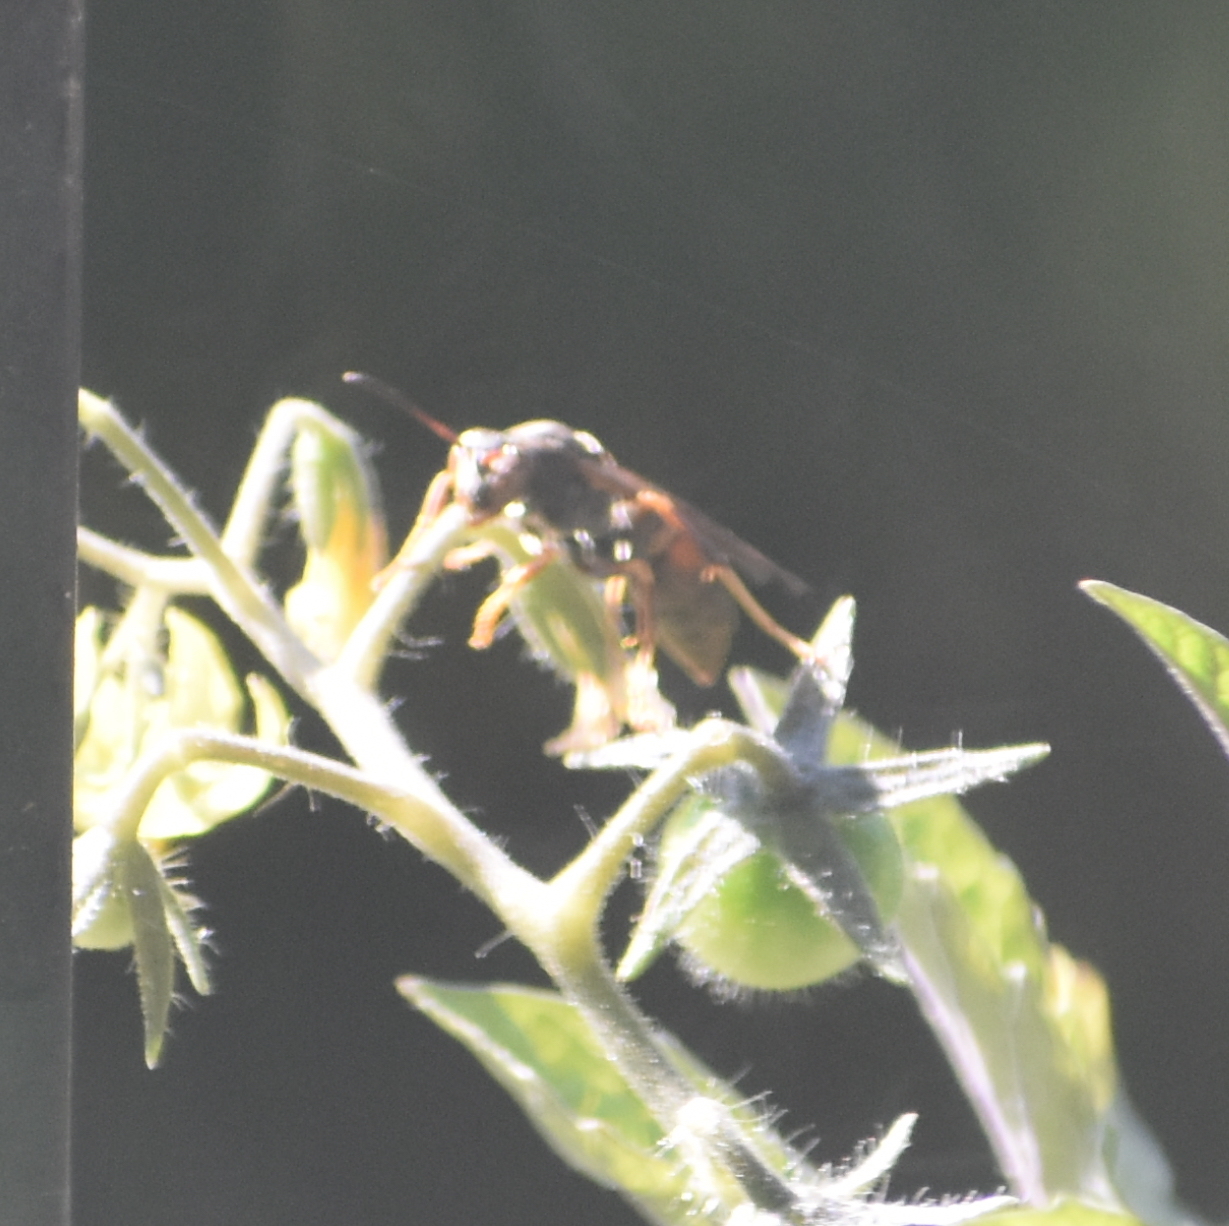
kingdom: Animalia
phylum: Arthropoda
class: Insecta
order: Hymenoptera
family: Eumenidae
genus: Polistes
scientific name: Polistes fuscatus
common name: Dark paper wasp
